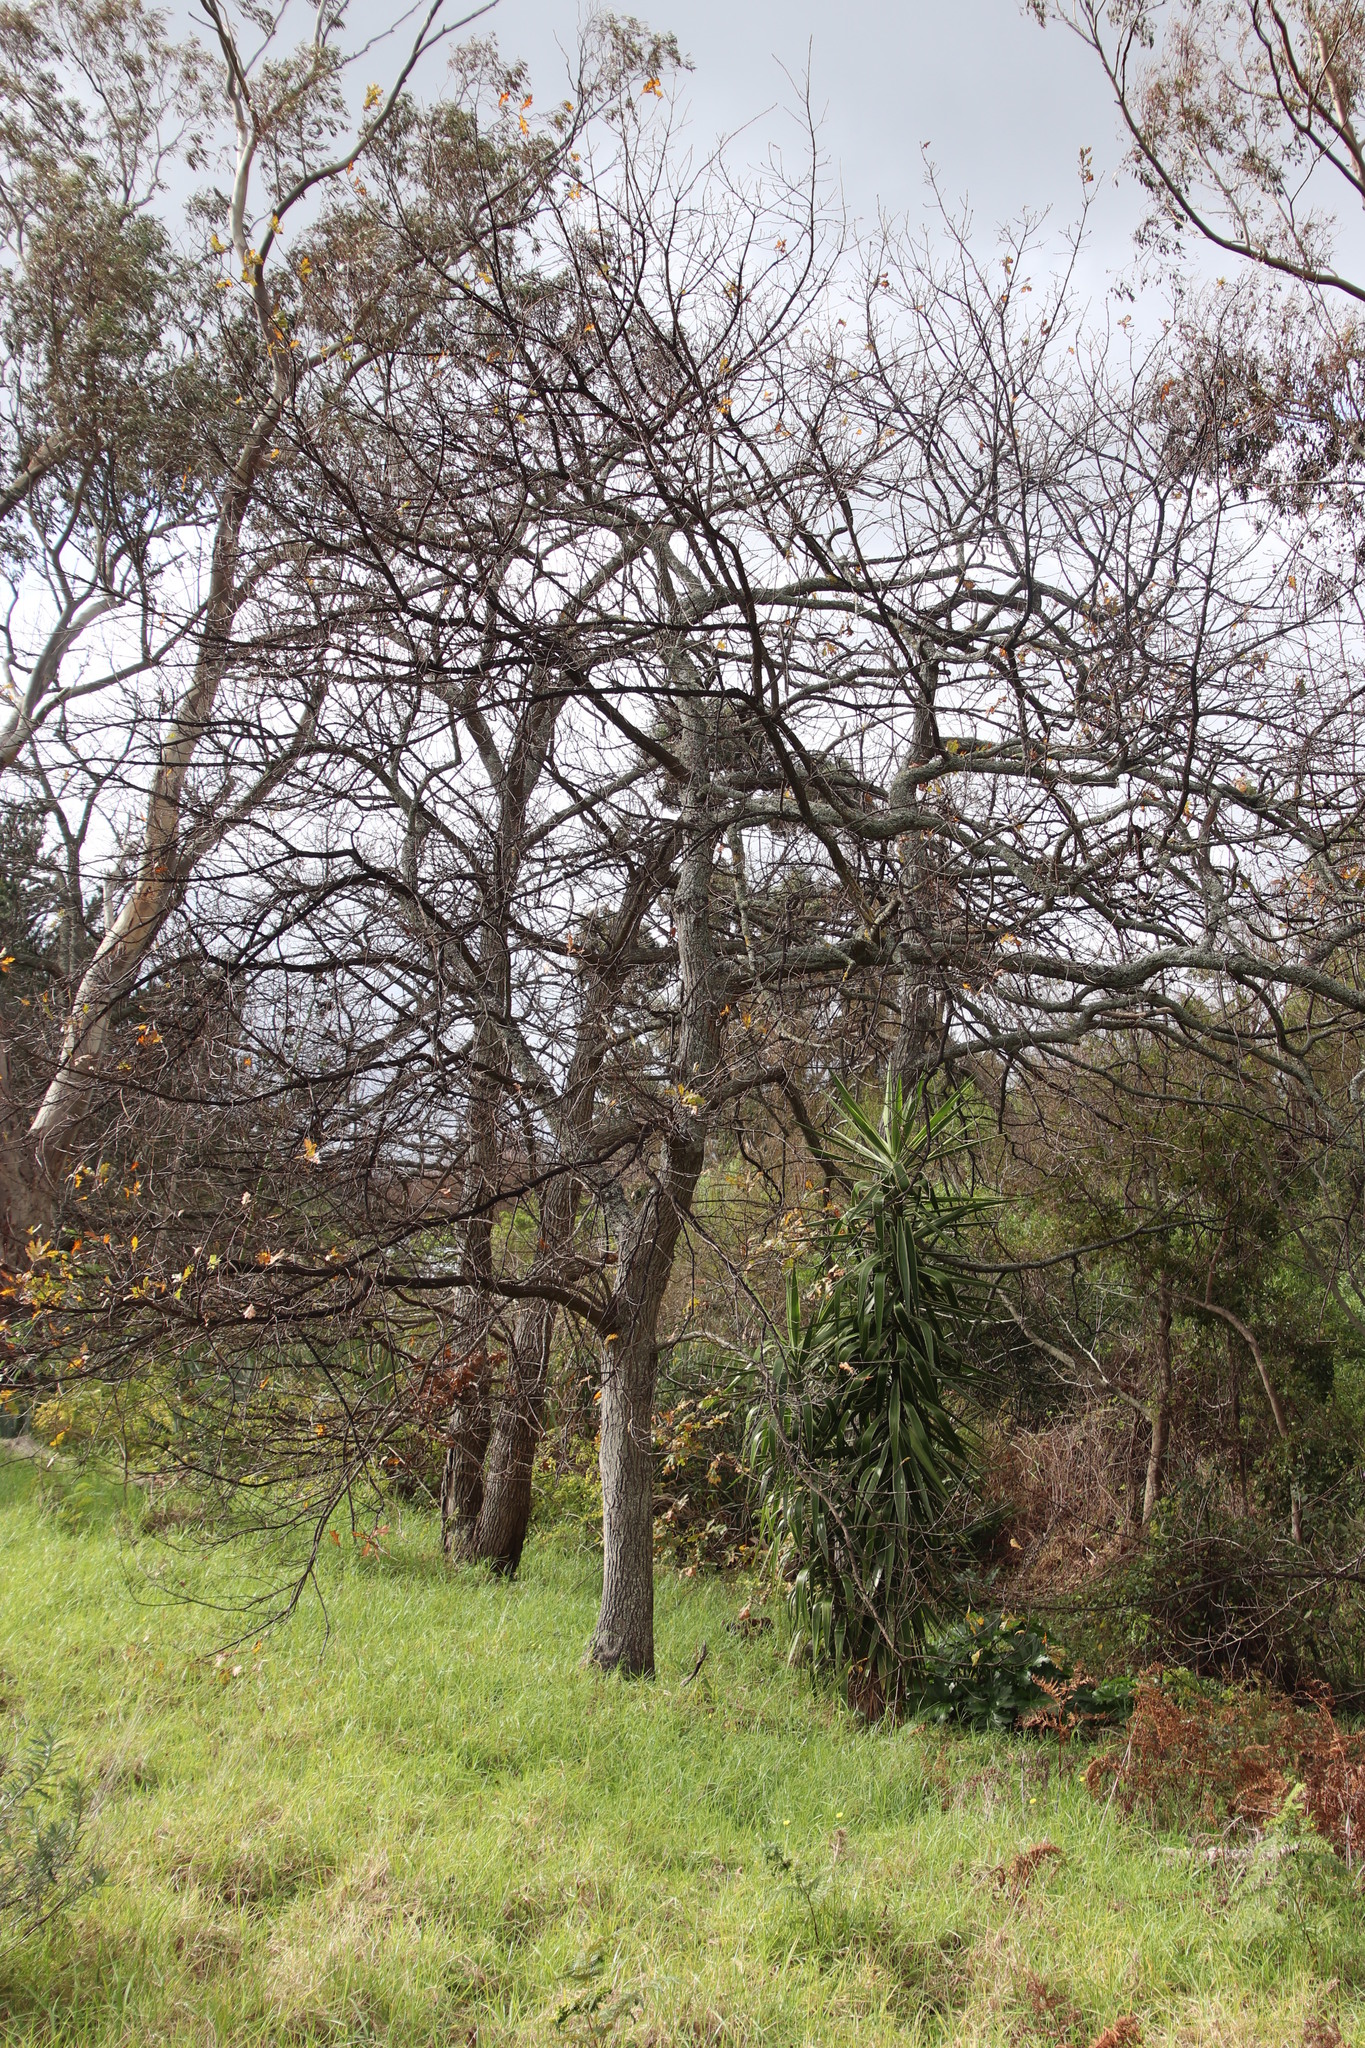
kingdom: Plantae
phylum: Tracheophyta
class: Magnoliopsida
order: Fagales
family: Fagaceae
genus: Quercus
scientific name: Quercus robur
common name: Pedunculate oak
